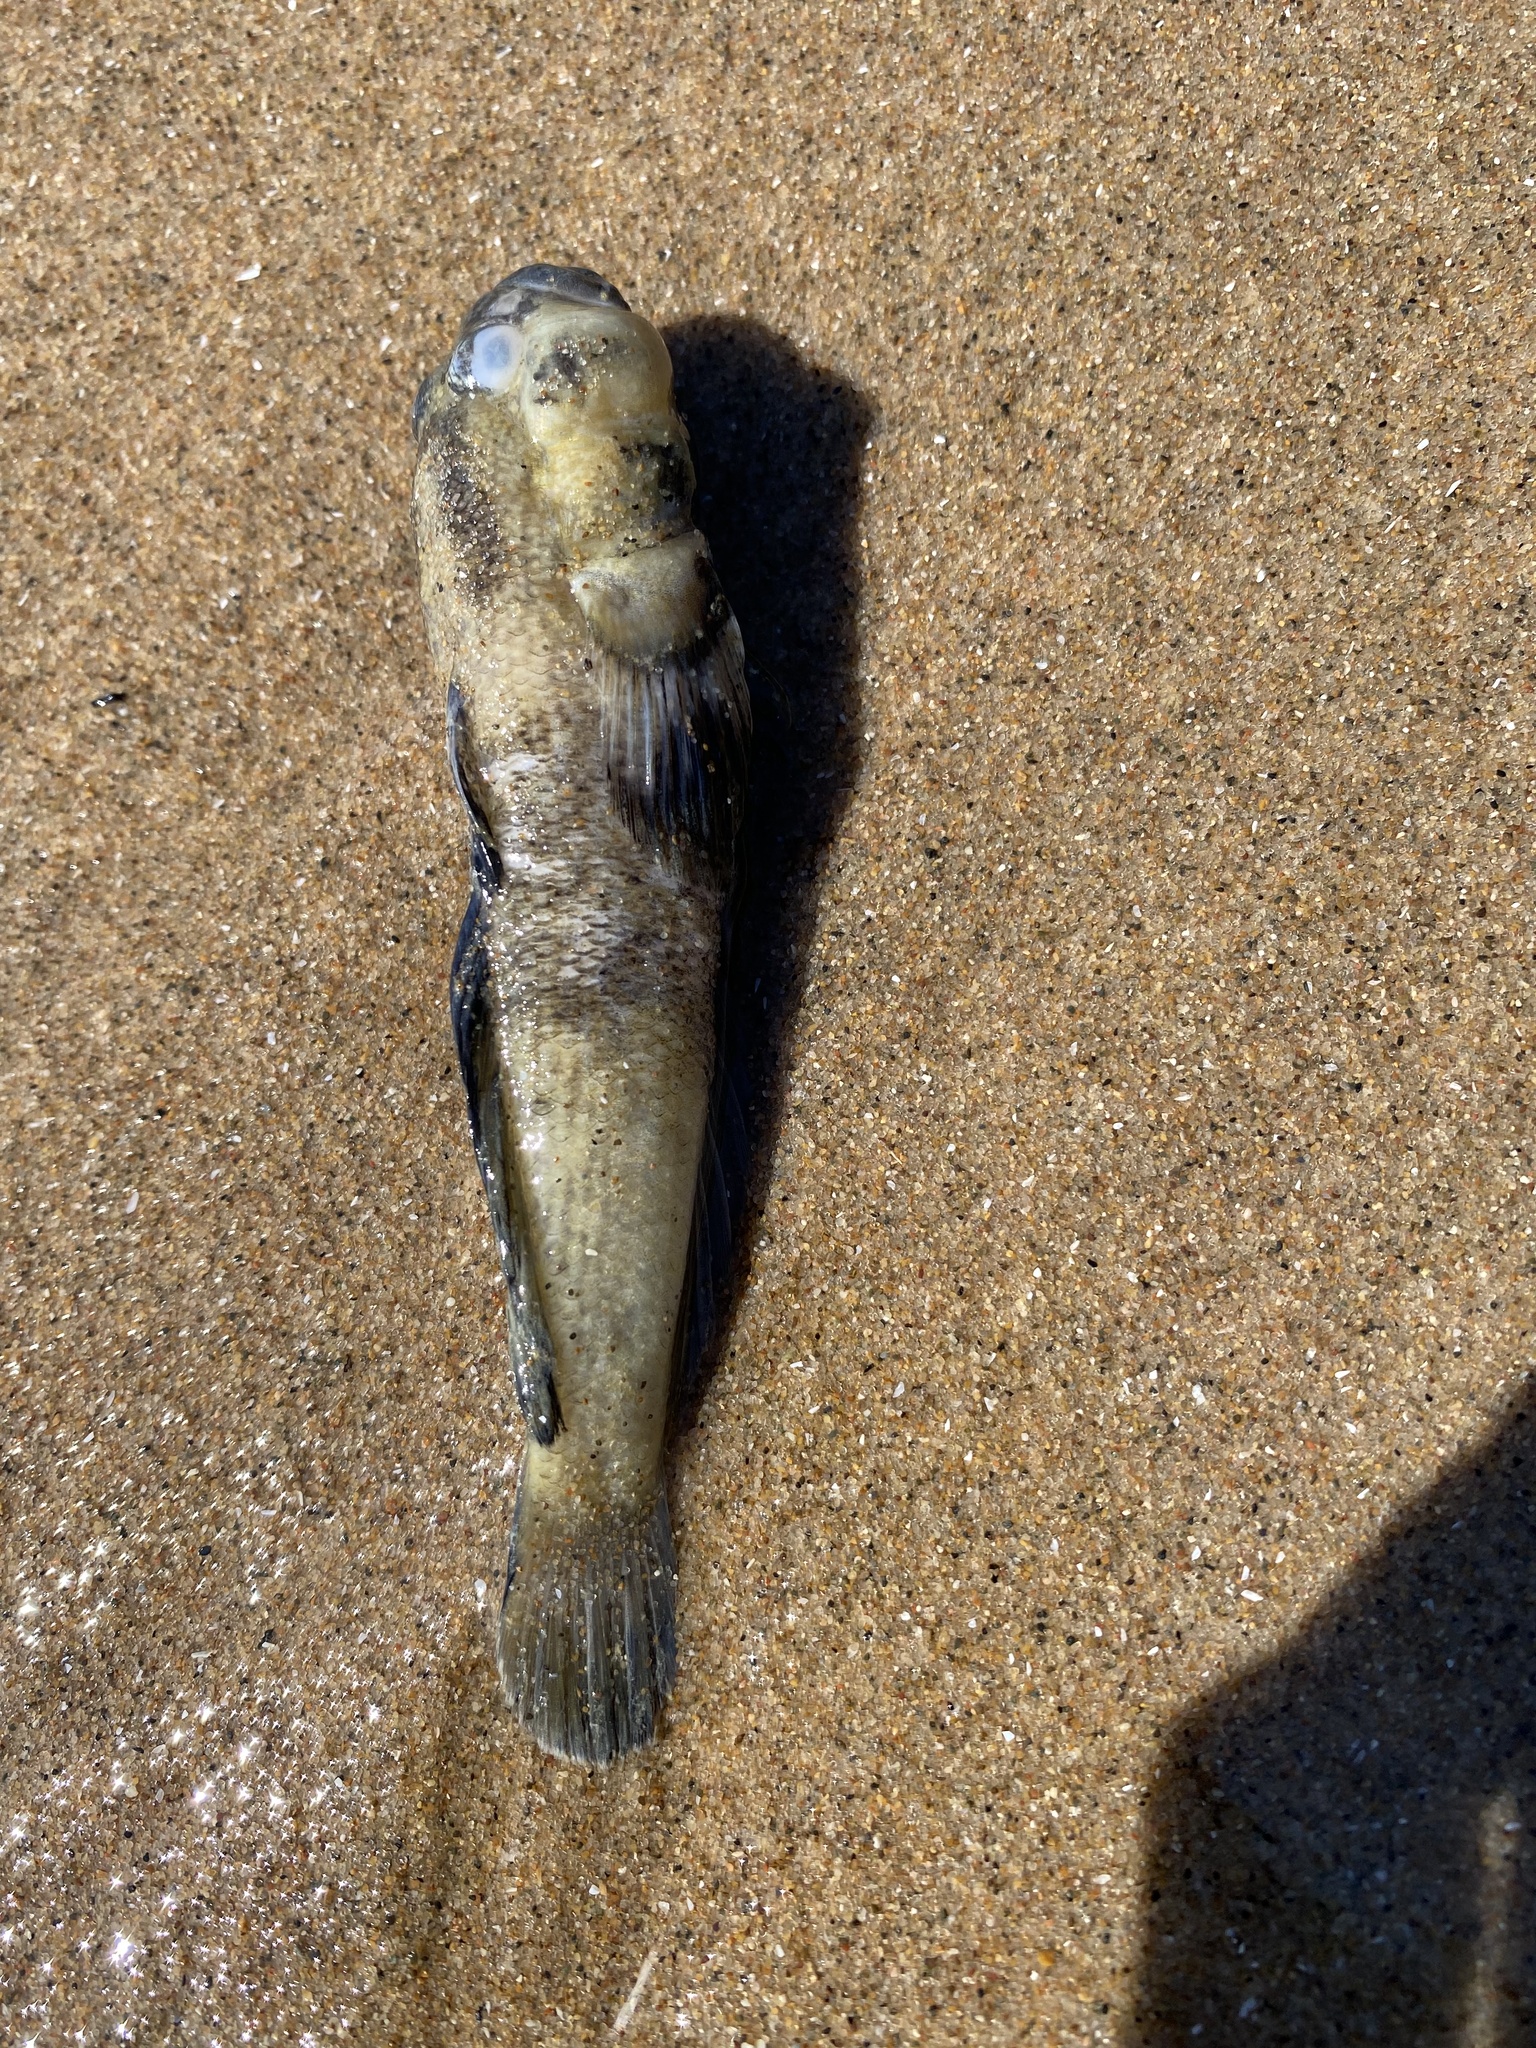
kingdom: Animalia
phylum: Chordata
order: Perciformes
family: Gobiidae
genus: Neogobius
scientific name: Neogobius melanostomus
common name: Round goby
